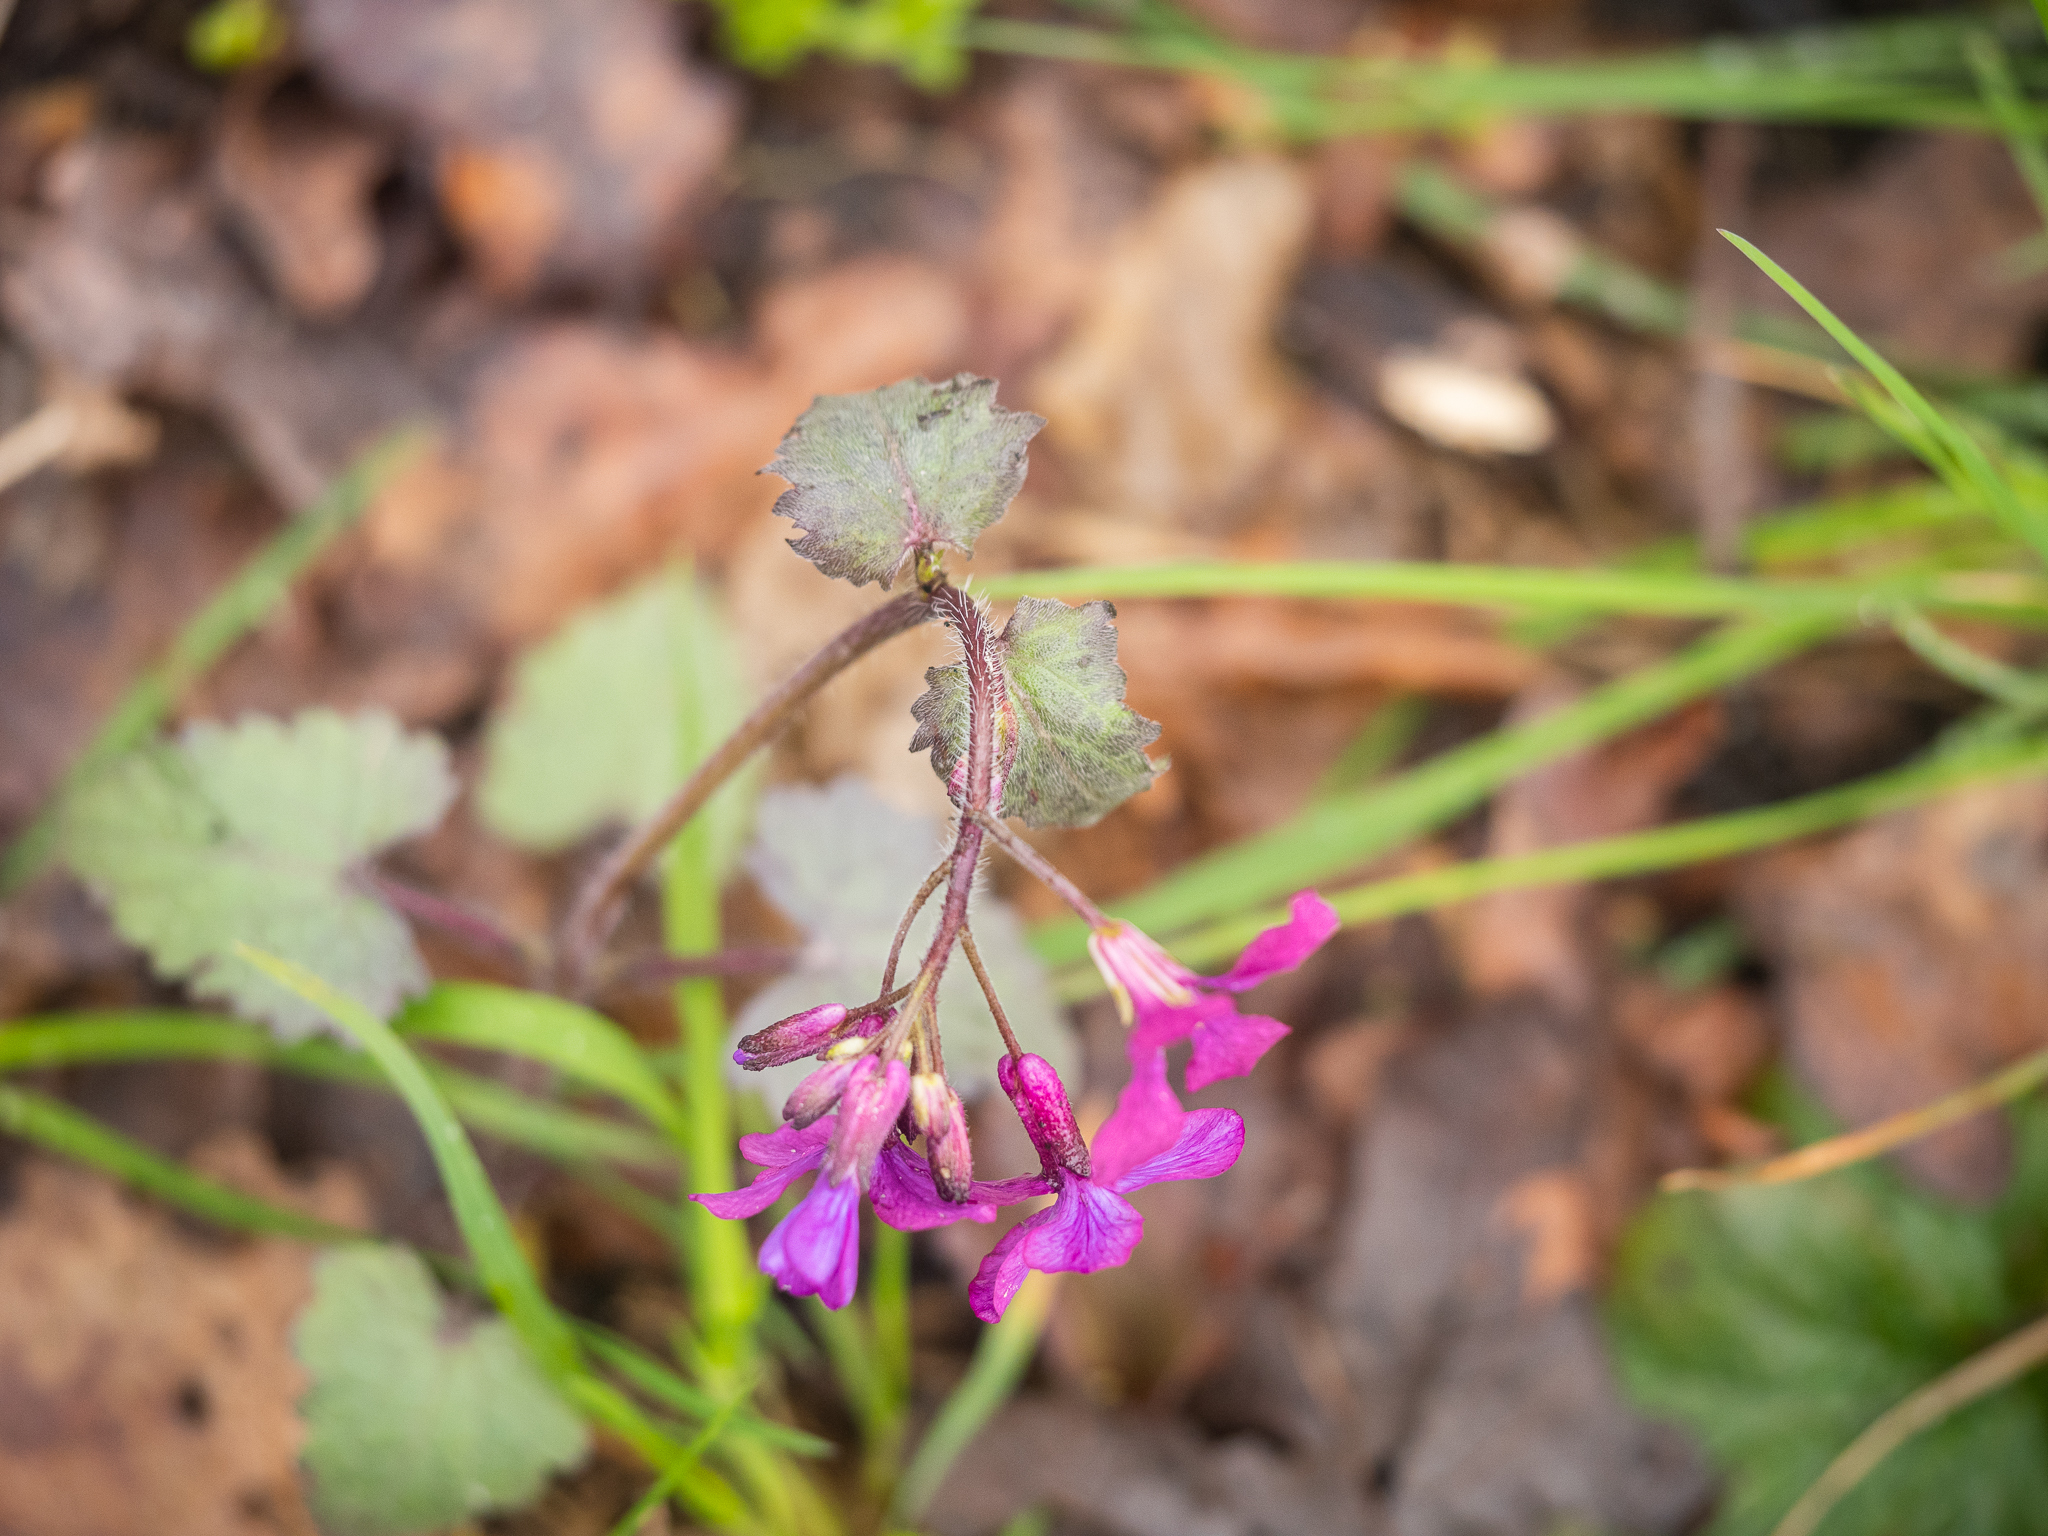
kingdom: Plantae
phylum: Tracheophyta
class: Magnoliopsida
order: Brassicales
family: Brassicaceae
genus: Lunaria
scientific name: Lunaria annua
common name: Honesty
